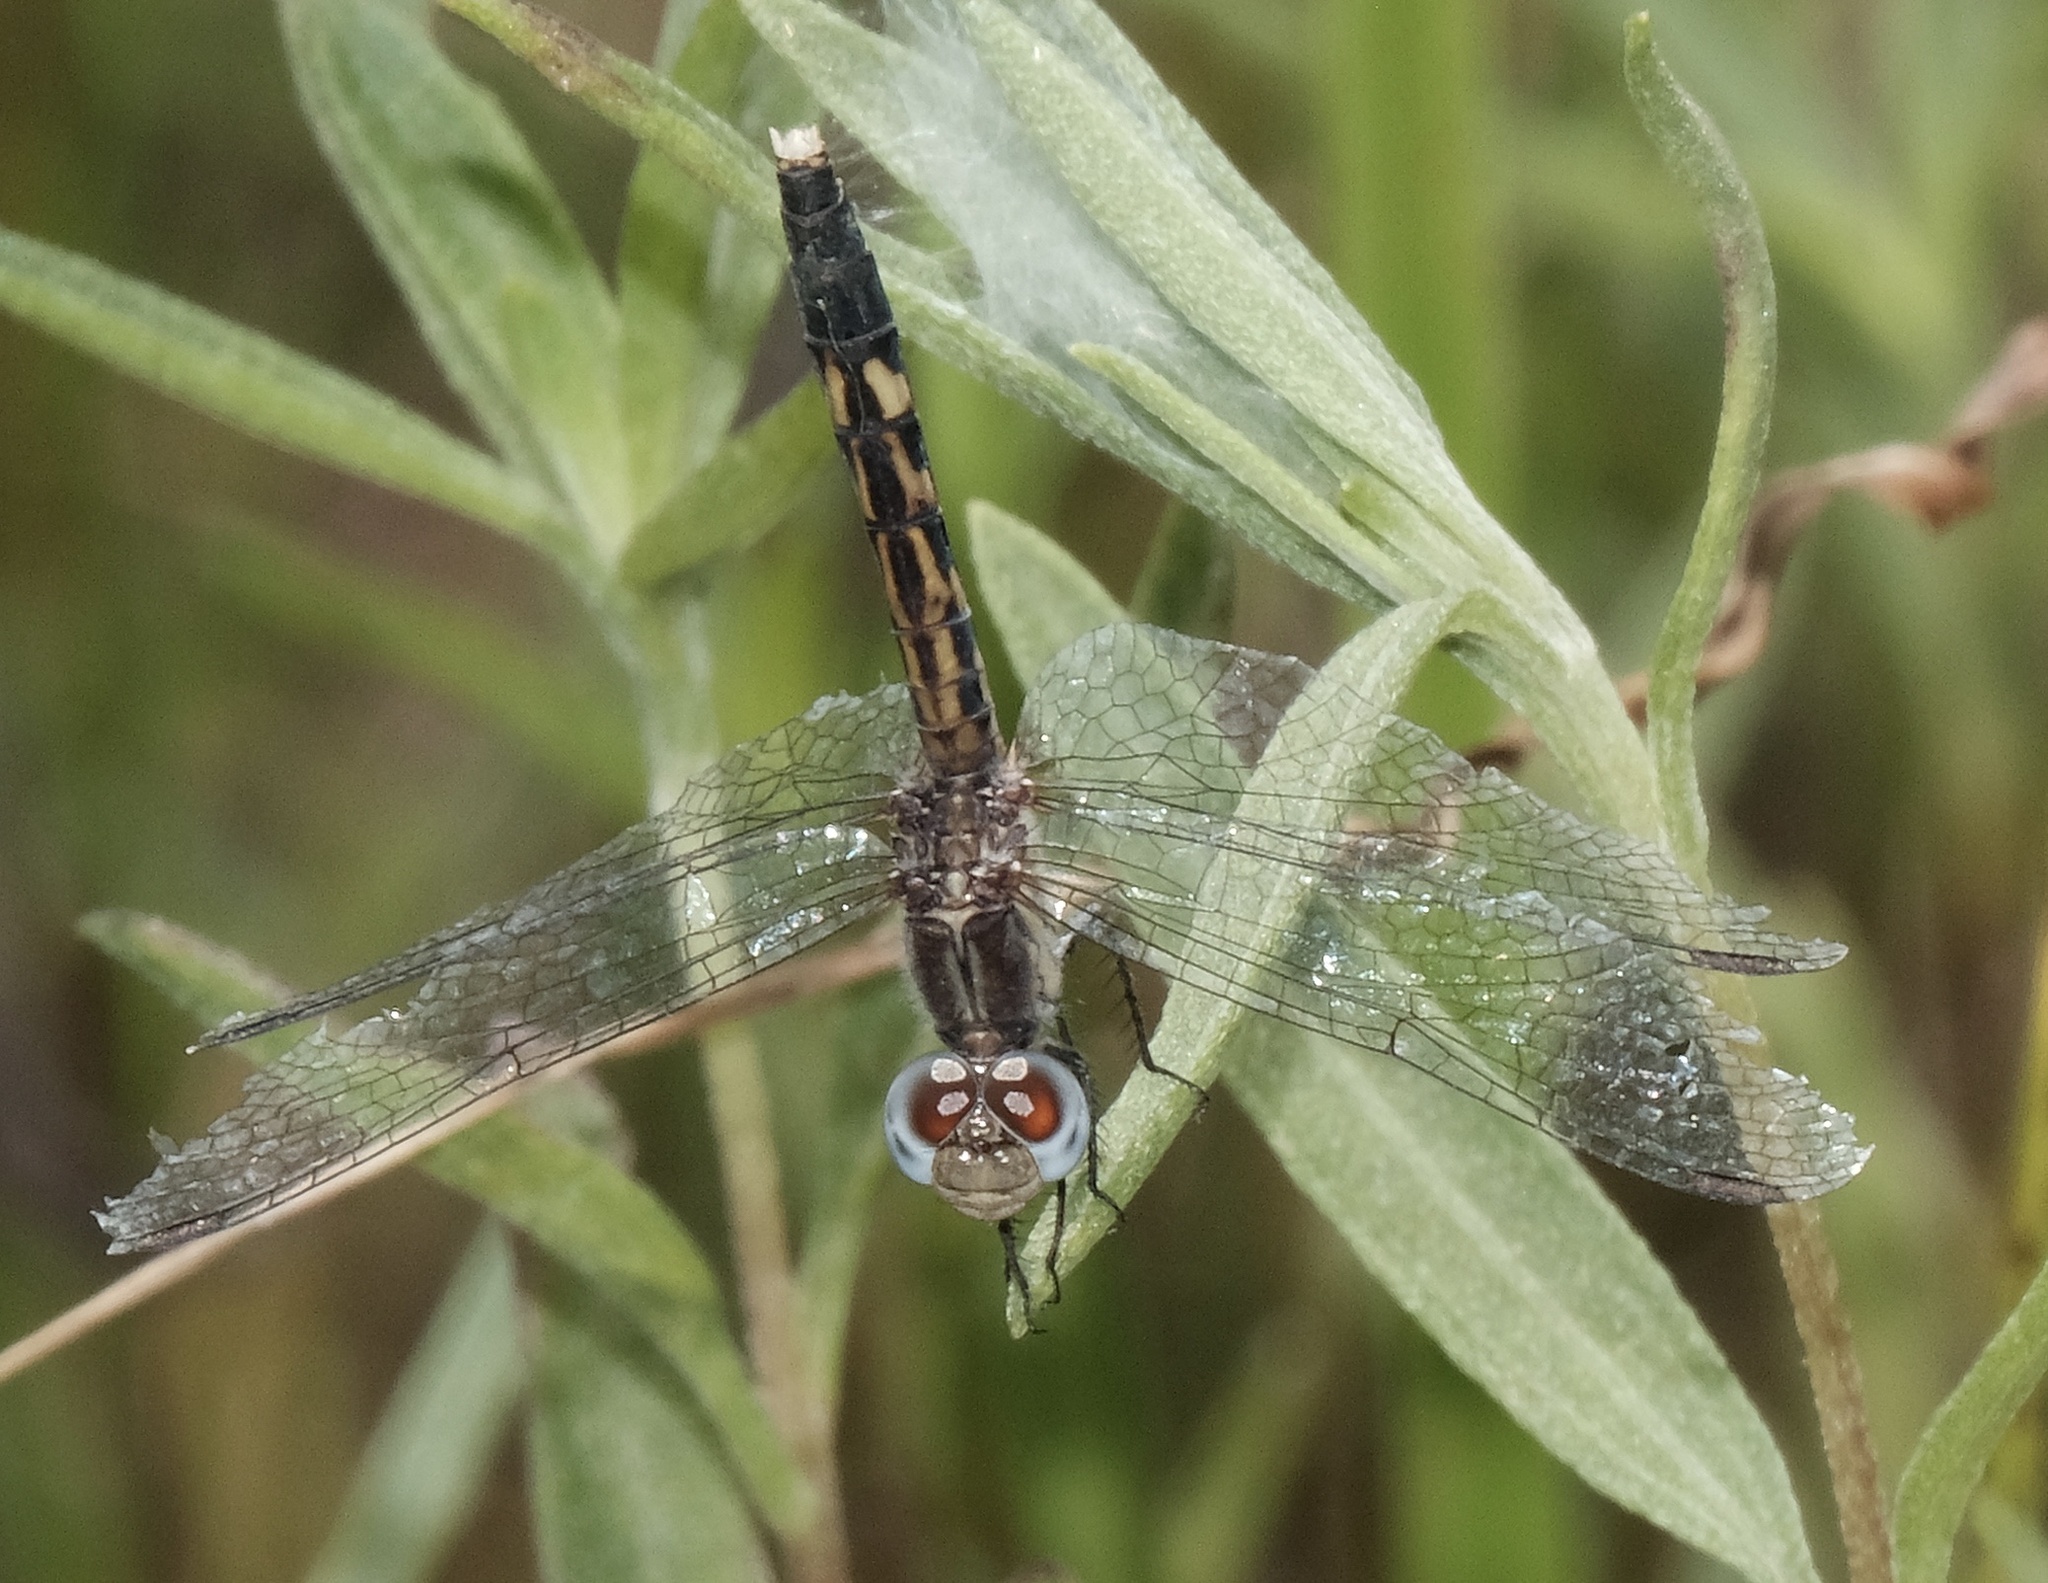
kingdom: Animalia
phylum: Arthropoda
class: Insecta
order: Odonata
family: Libellulidae
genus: Erythrodiplax
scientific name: Erythrodiplax minuscula
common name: Little blue dragonlet
